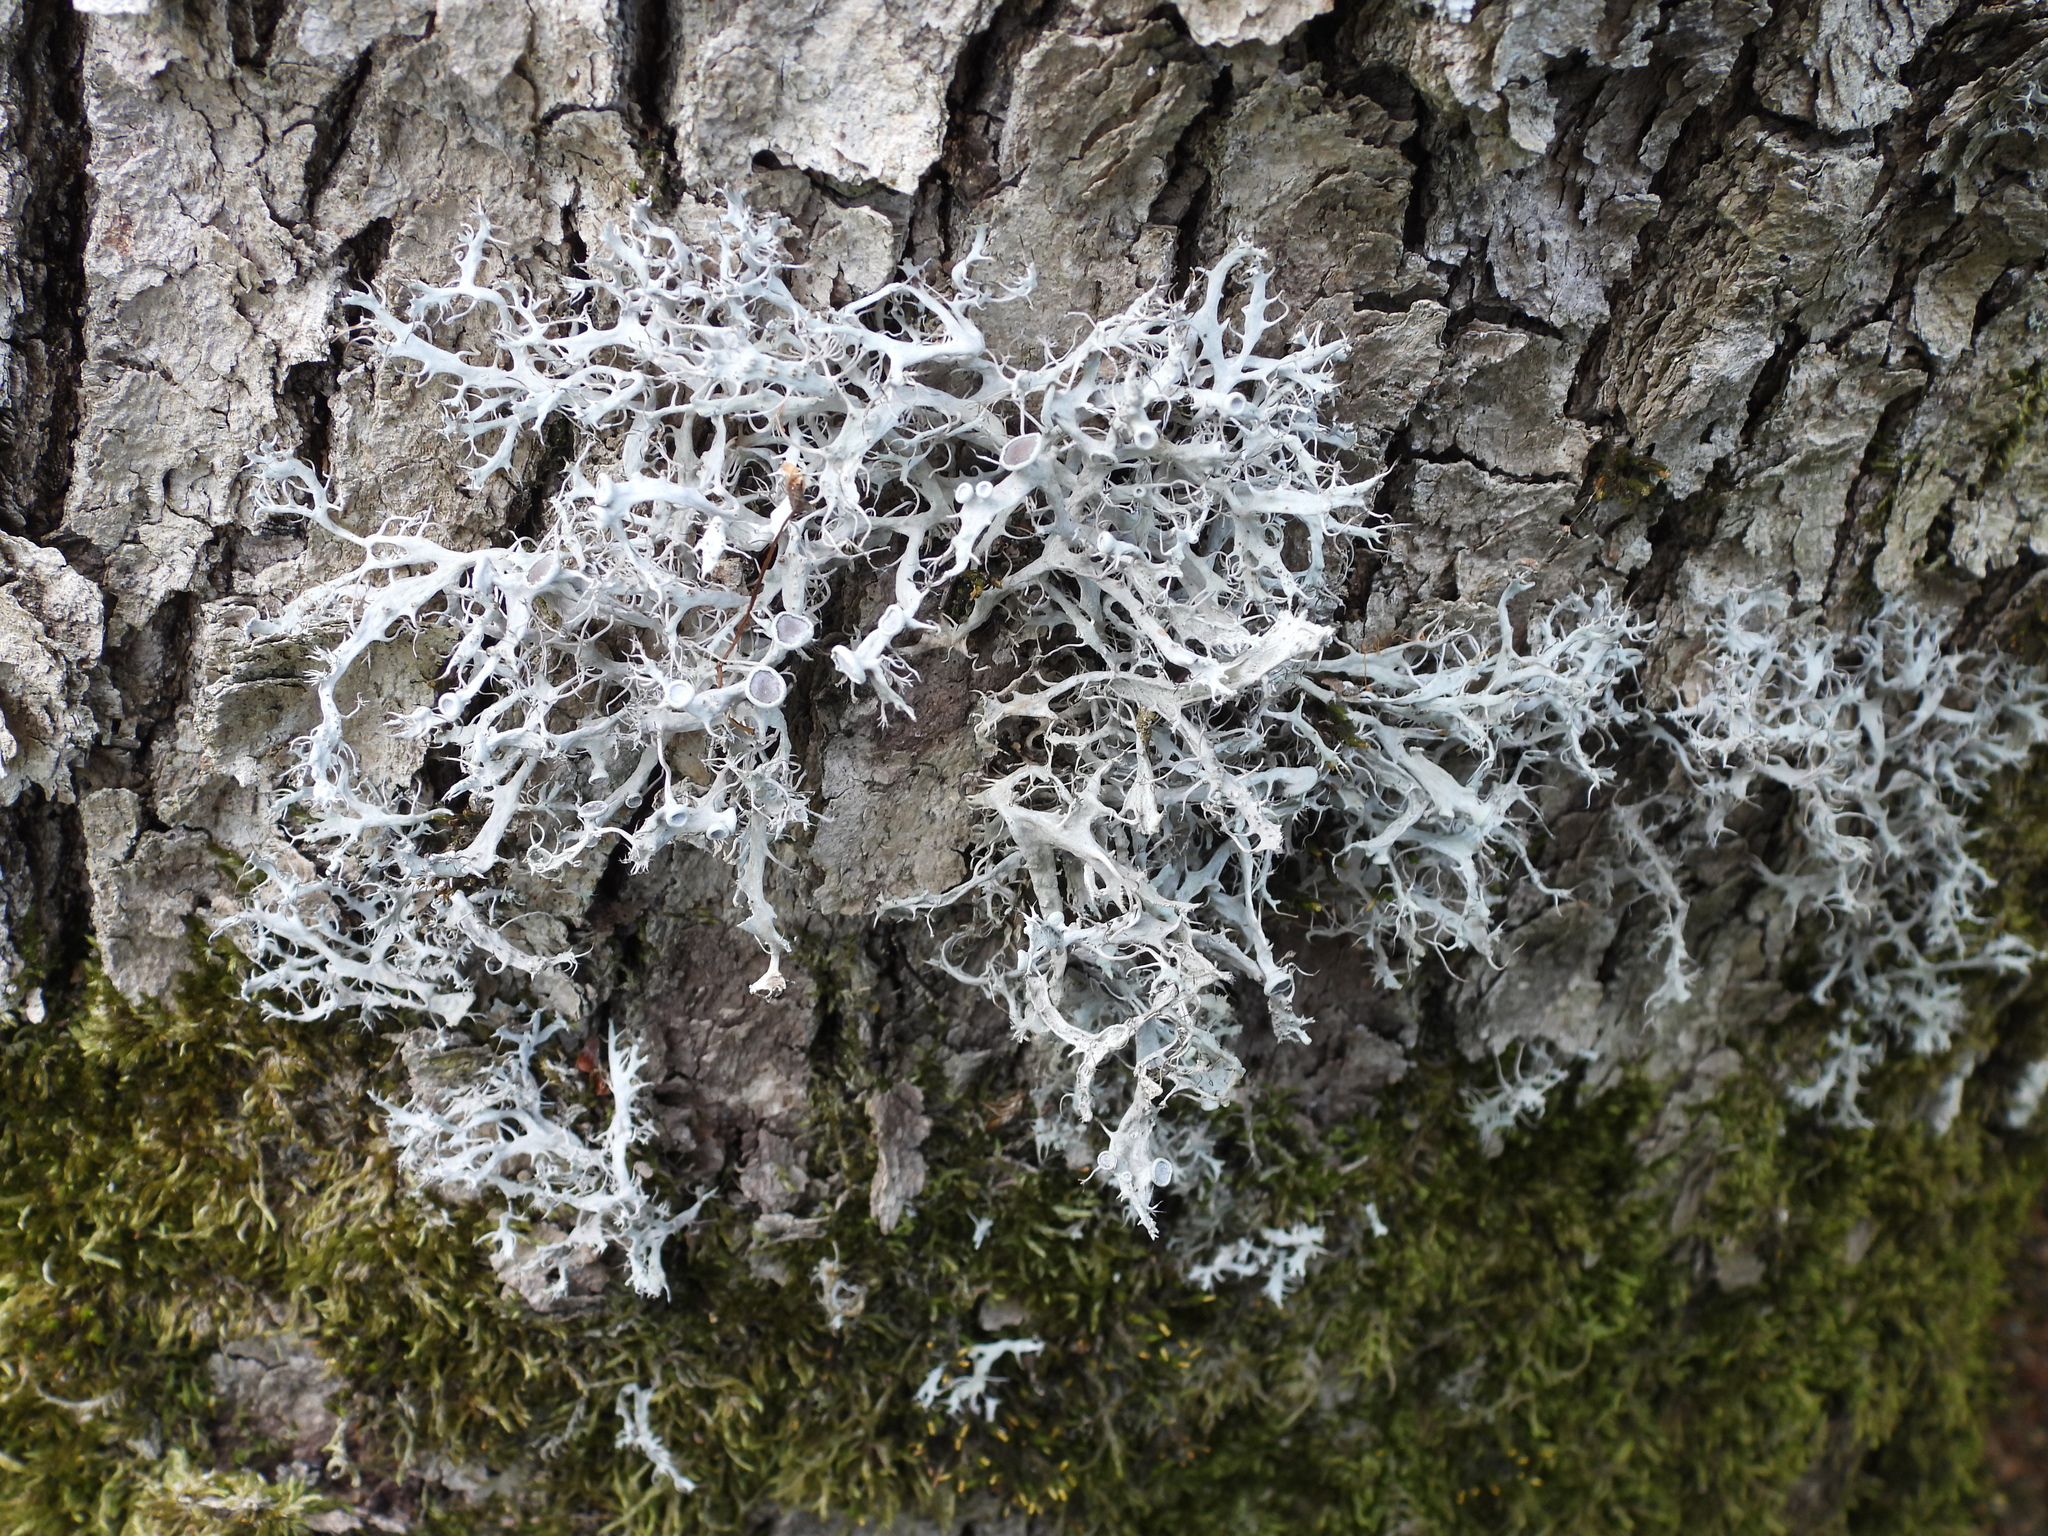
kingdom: Fungi
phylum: Ascomycota
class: Lecanoromycetes
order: Caliciales
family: Physciaceae
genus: Anaptychia
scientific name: Anaptychia ciliaris
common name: Great ciliated lichen
